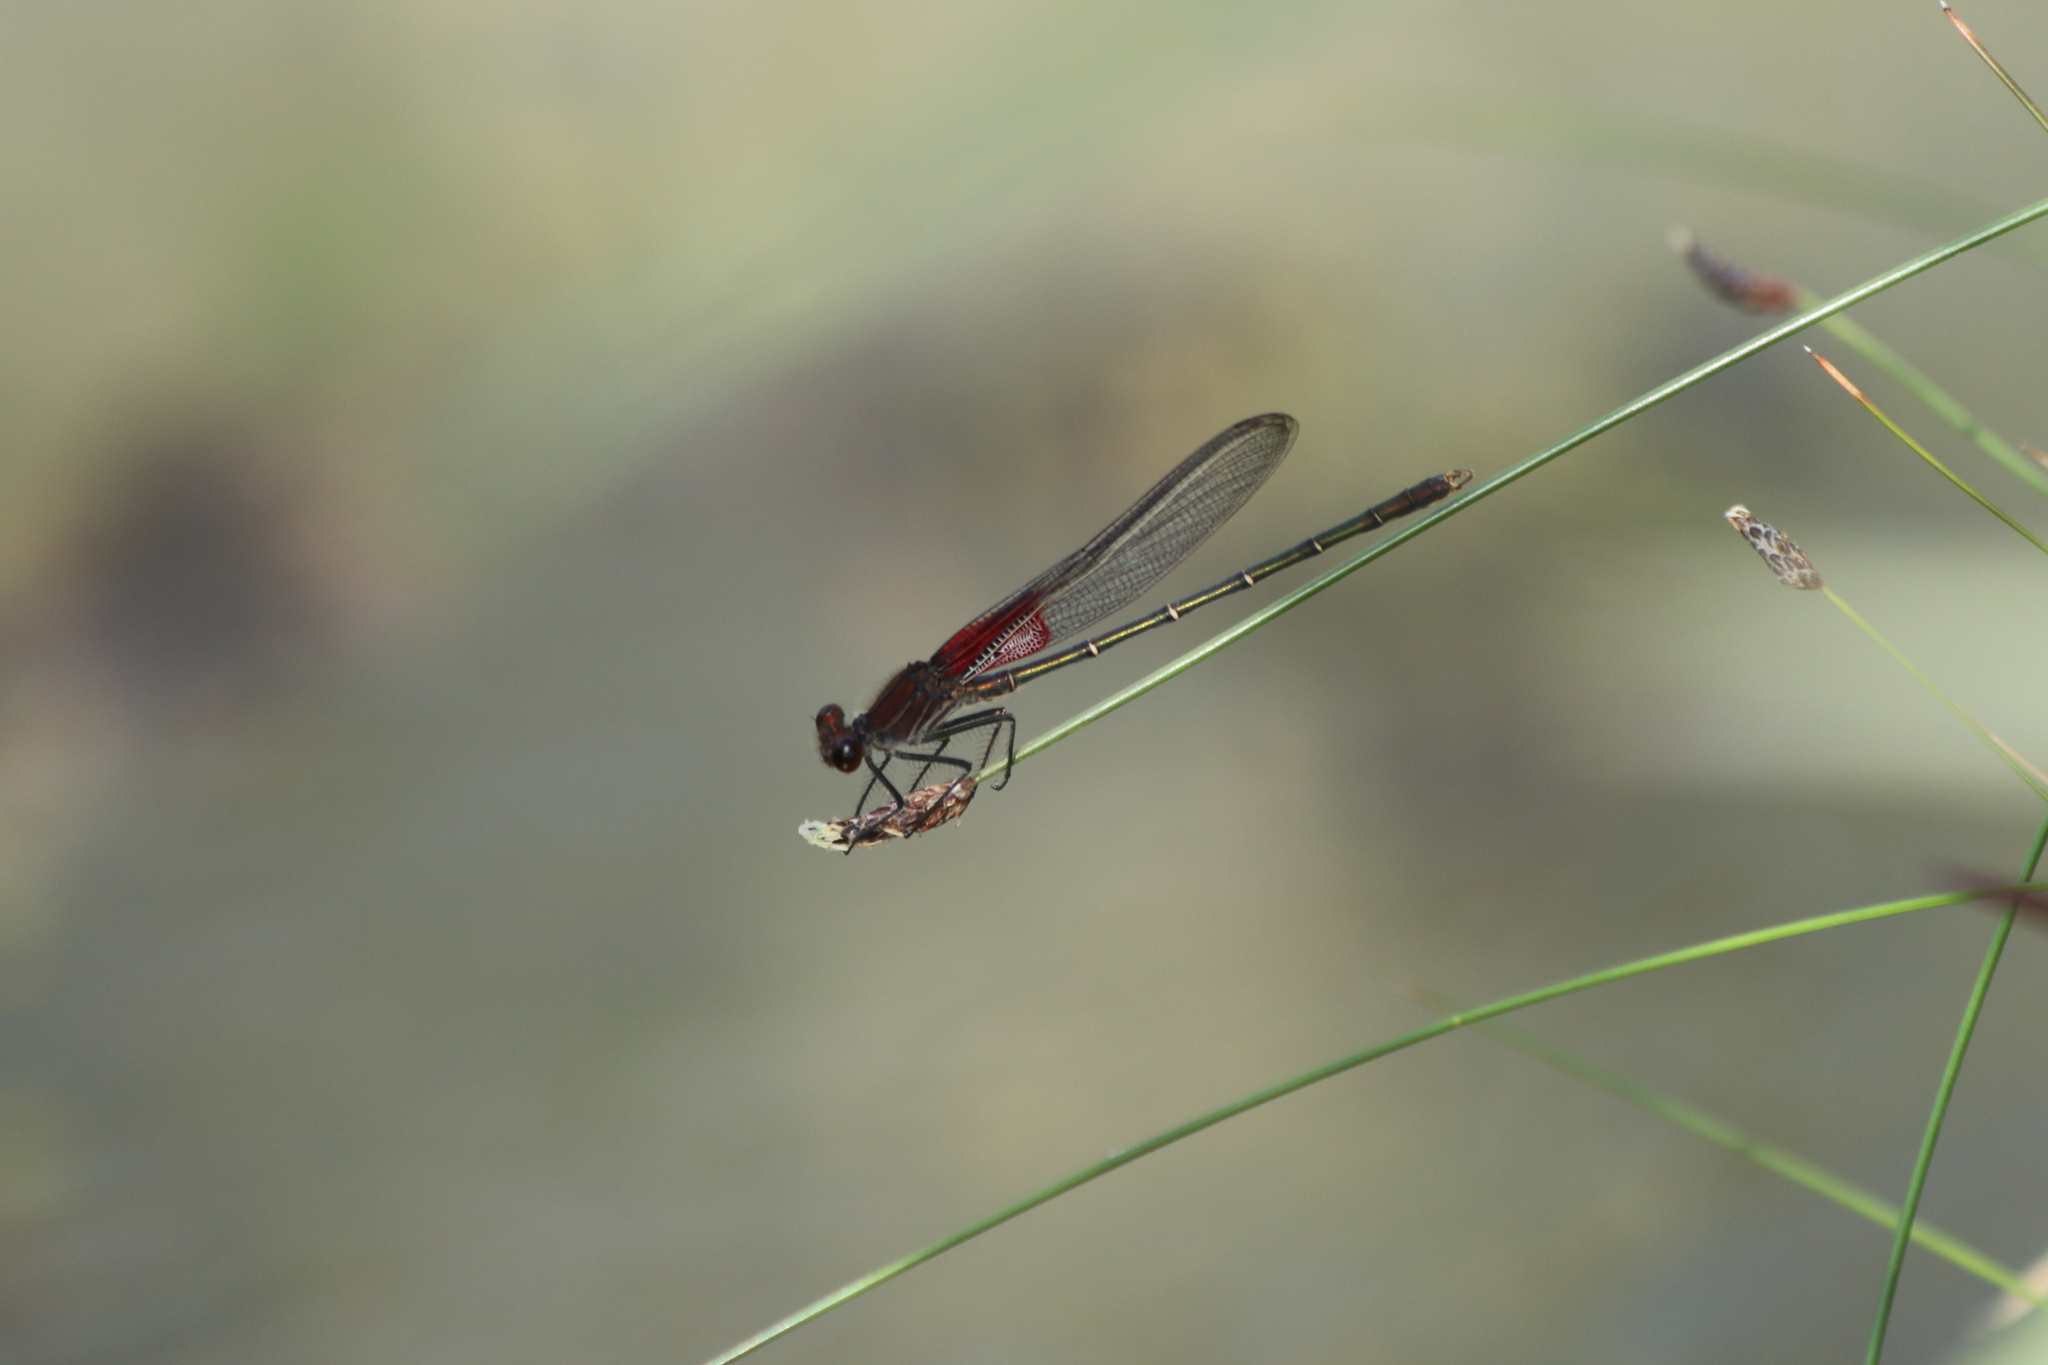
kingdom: Animalia
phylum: Arthropoda
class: Insecta
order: Odonata
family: Calopterygidae
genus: Hetaerina
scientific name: Hetaerina americana
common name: American rubyspot
